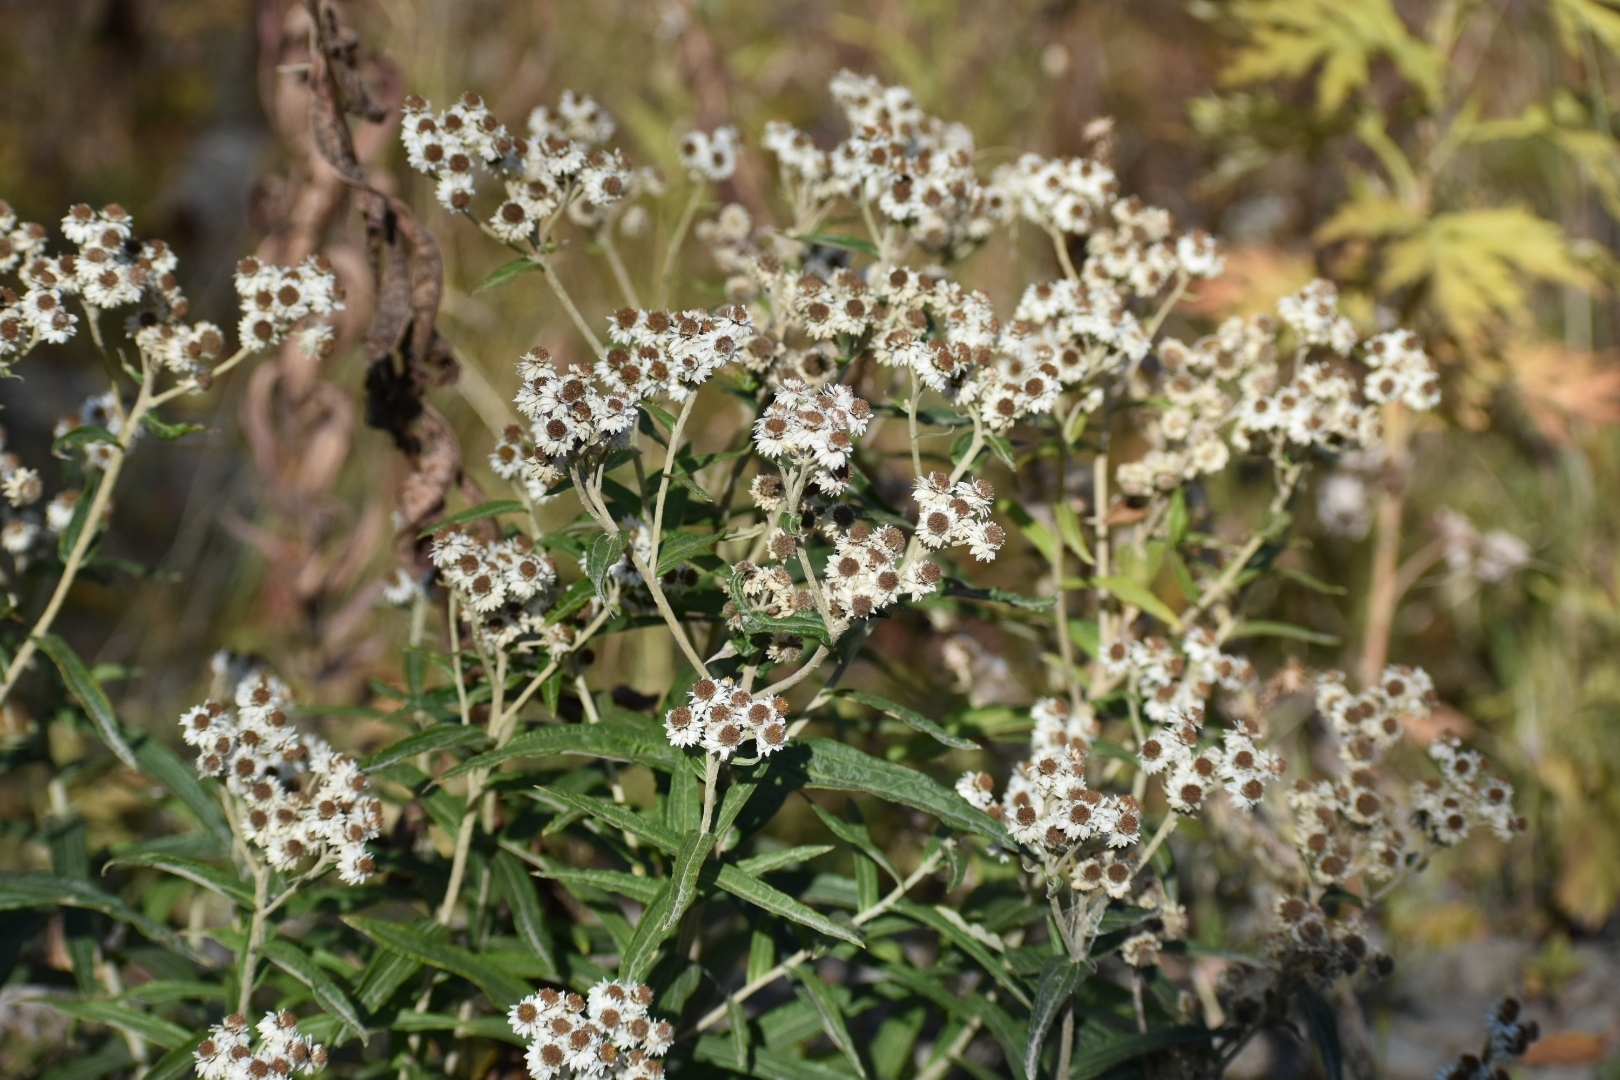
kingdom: Plantae
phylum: Tracheophyta
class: Magnoliopsida
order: Asterales
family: Asteraceae
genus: Anaphalis
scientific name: Anaphalis margaritacea
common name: Pearly everlasting
